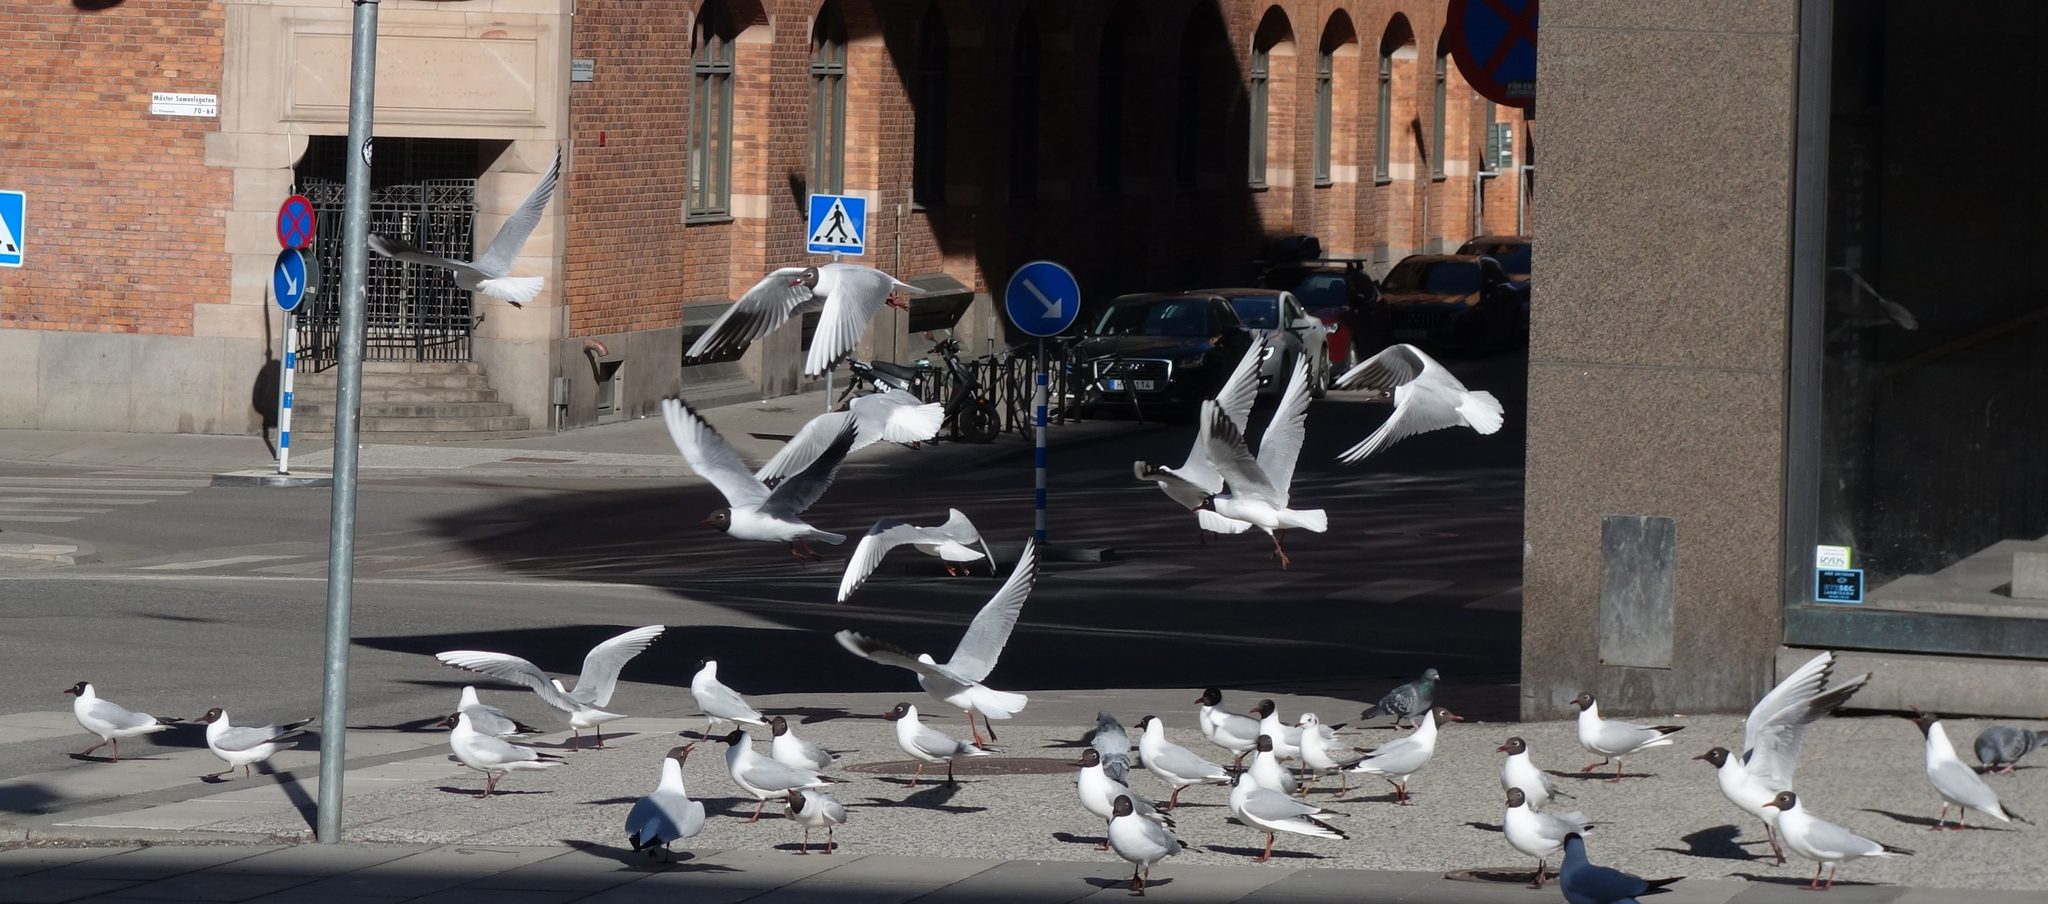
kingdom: Animalia
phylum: Chordata
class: Aves
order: Charadriiformes
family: Laridae
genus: Chroicocephalus
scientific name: Chroicocephalus ridibundus
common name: Black-headed gull
